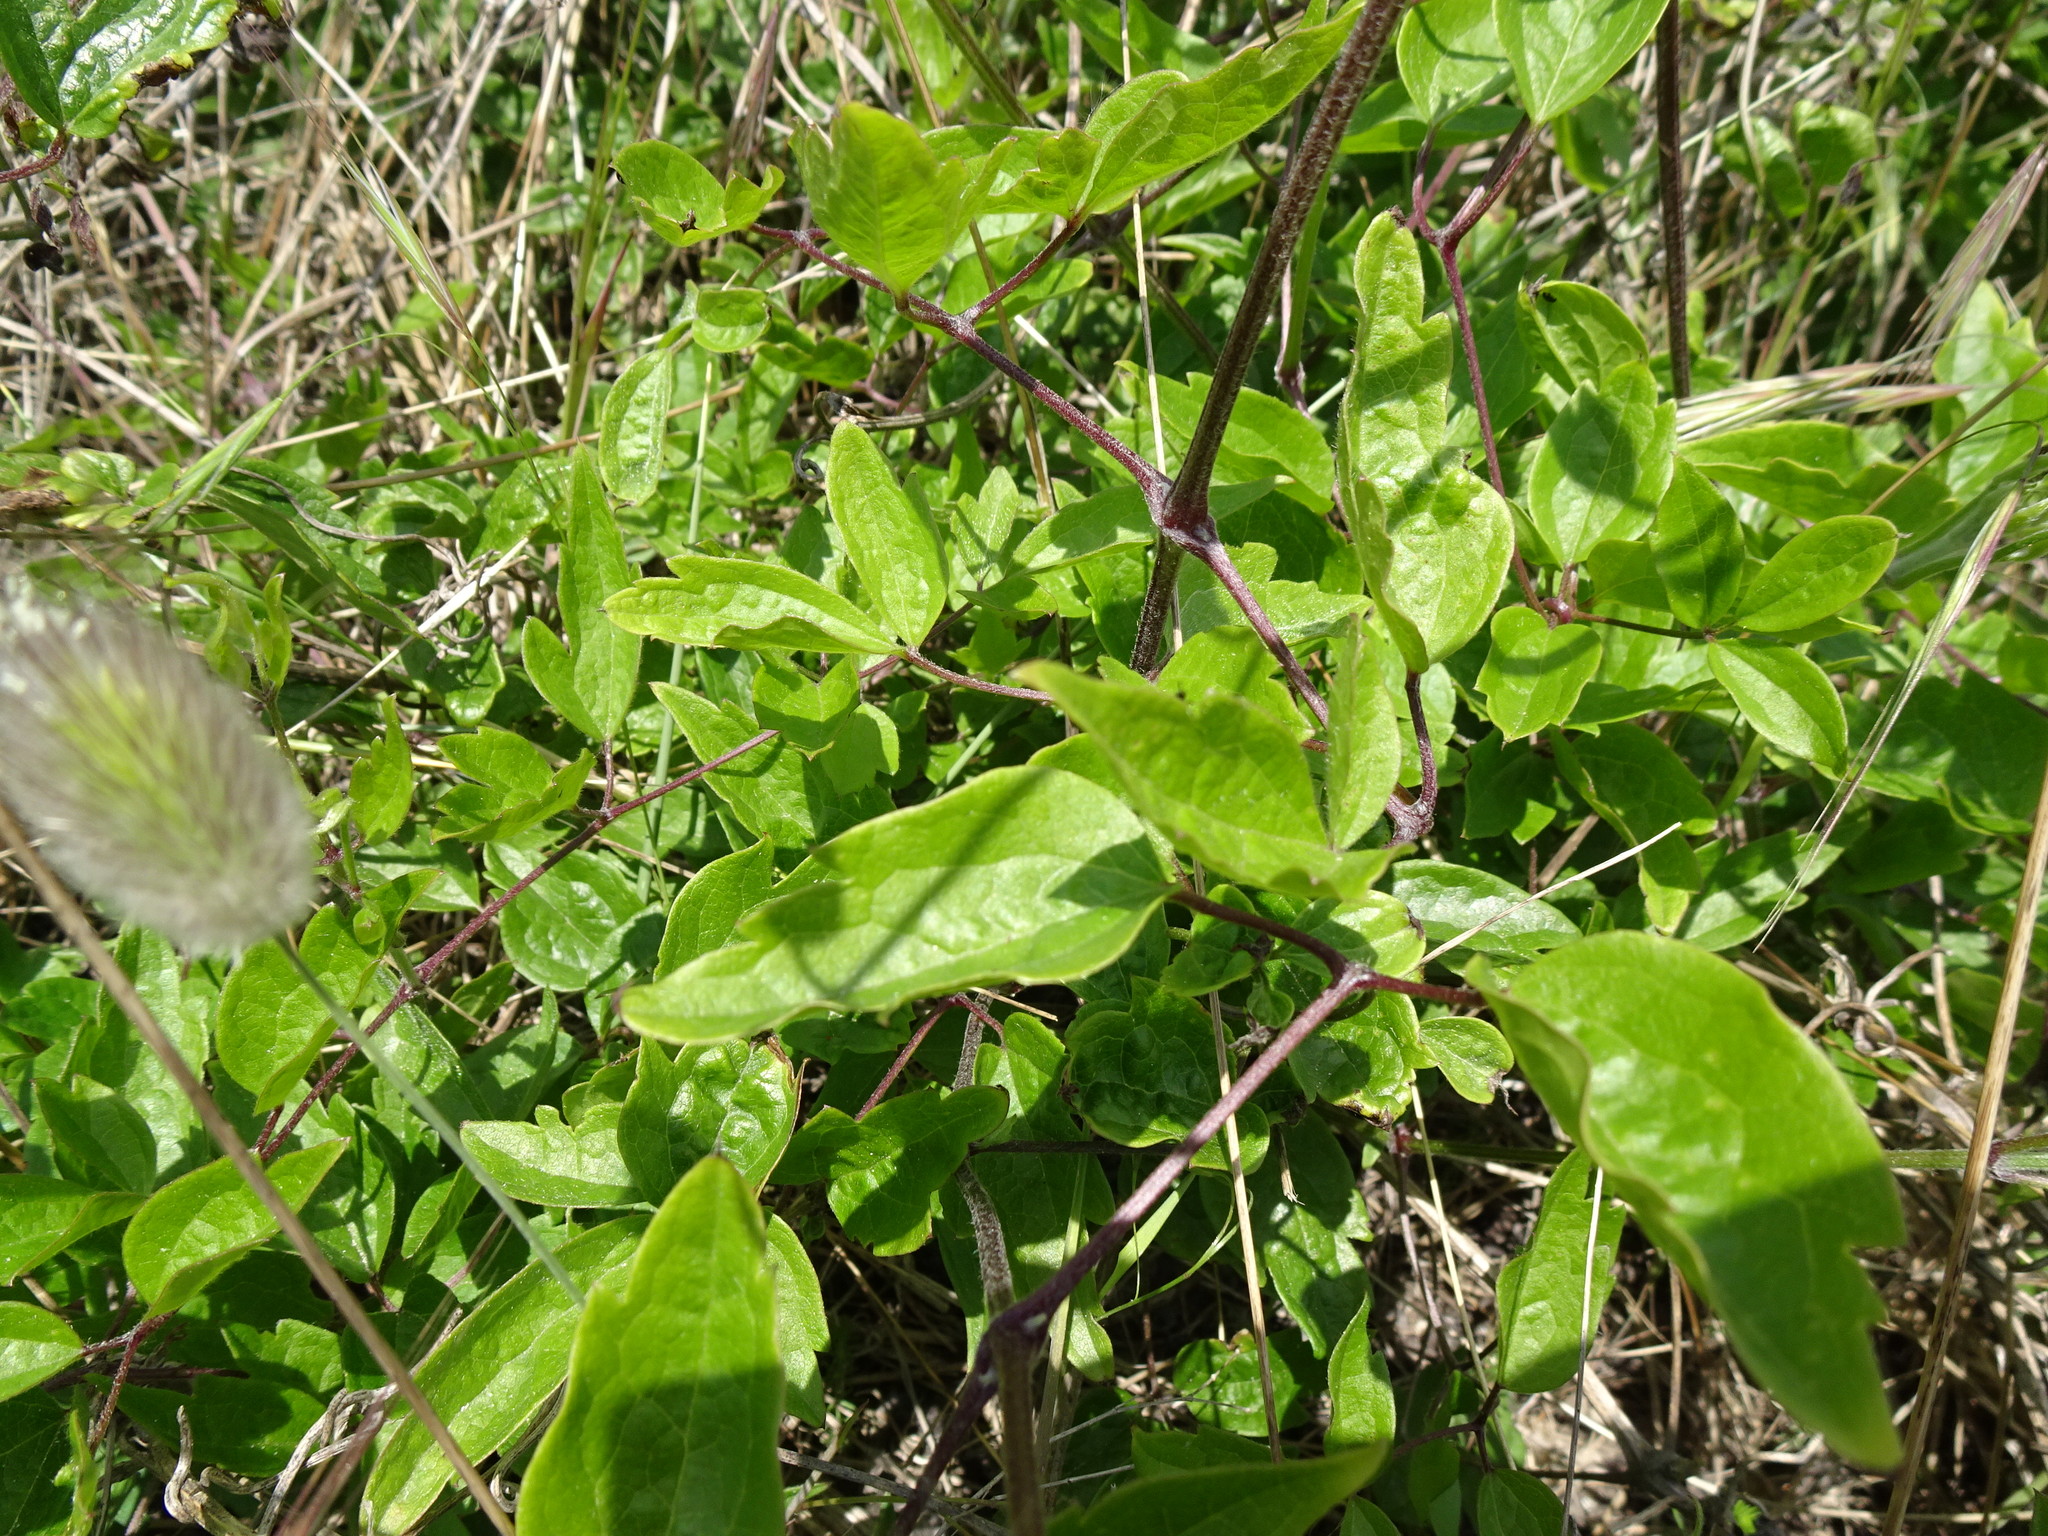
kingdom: Plantae
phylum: Tracheophyta
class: Magnoliopsida
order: Ranunculales
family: Ranunculaceae
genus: Clematis
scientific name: Clematis vitalba
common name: Evergreen clematis
